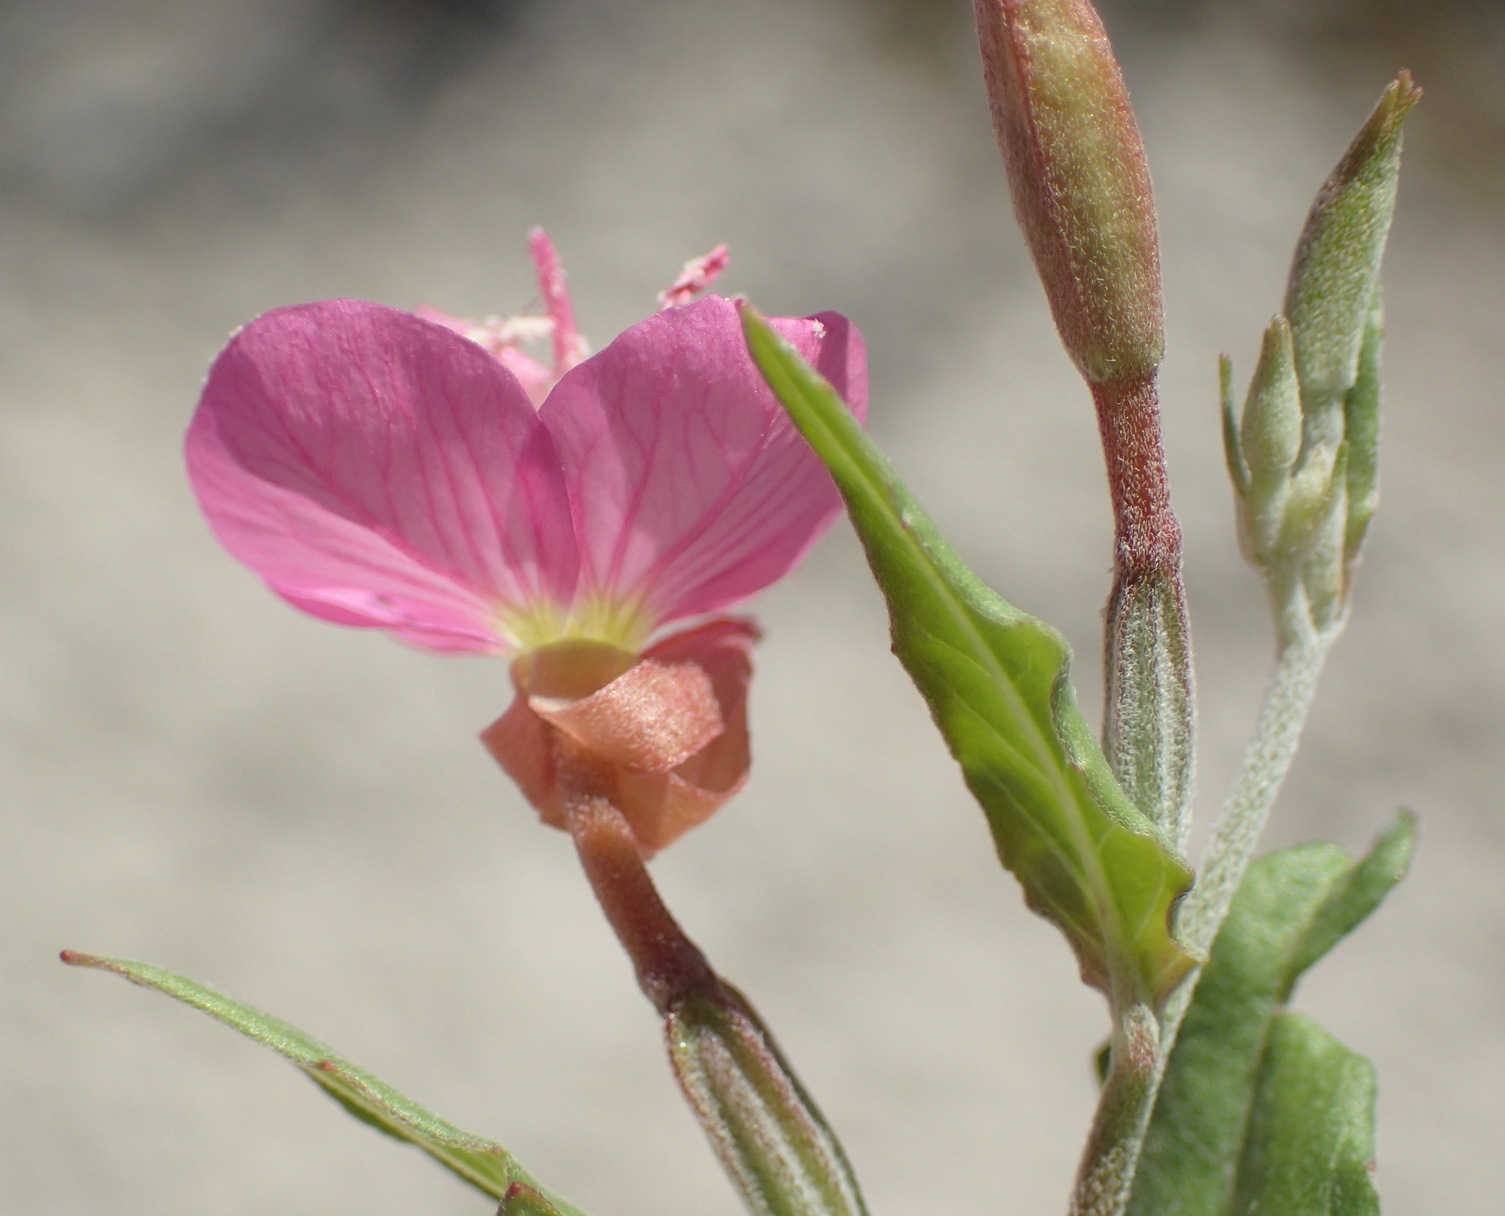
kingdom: Plantae
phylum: Tracheophyta
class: Magnoliopsida
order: Myrtales
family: Onagraceae
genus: Oenothera
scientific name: Oenothera rosea
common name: Rosy evening-primrose
